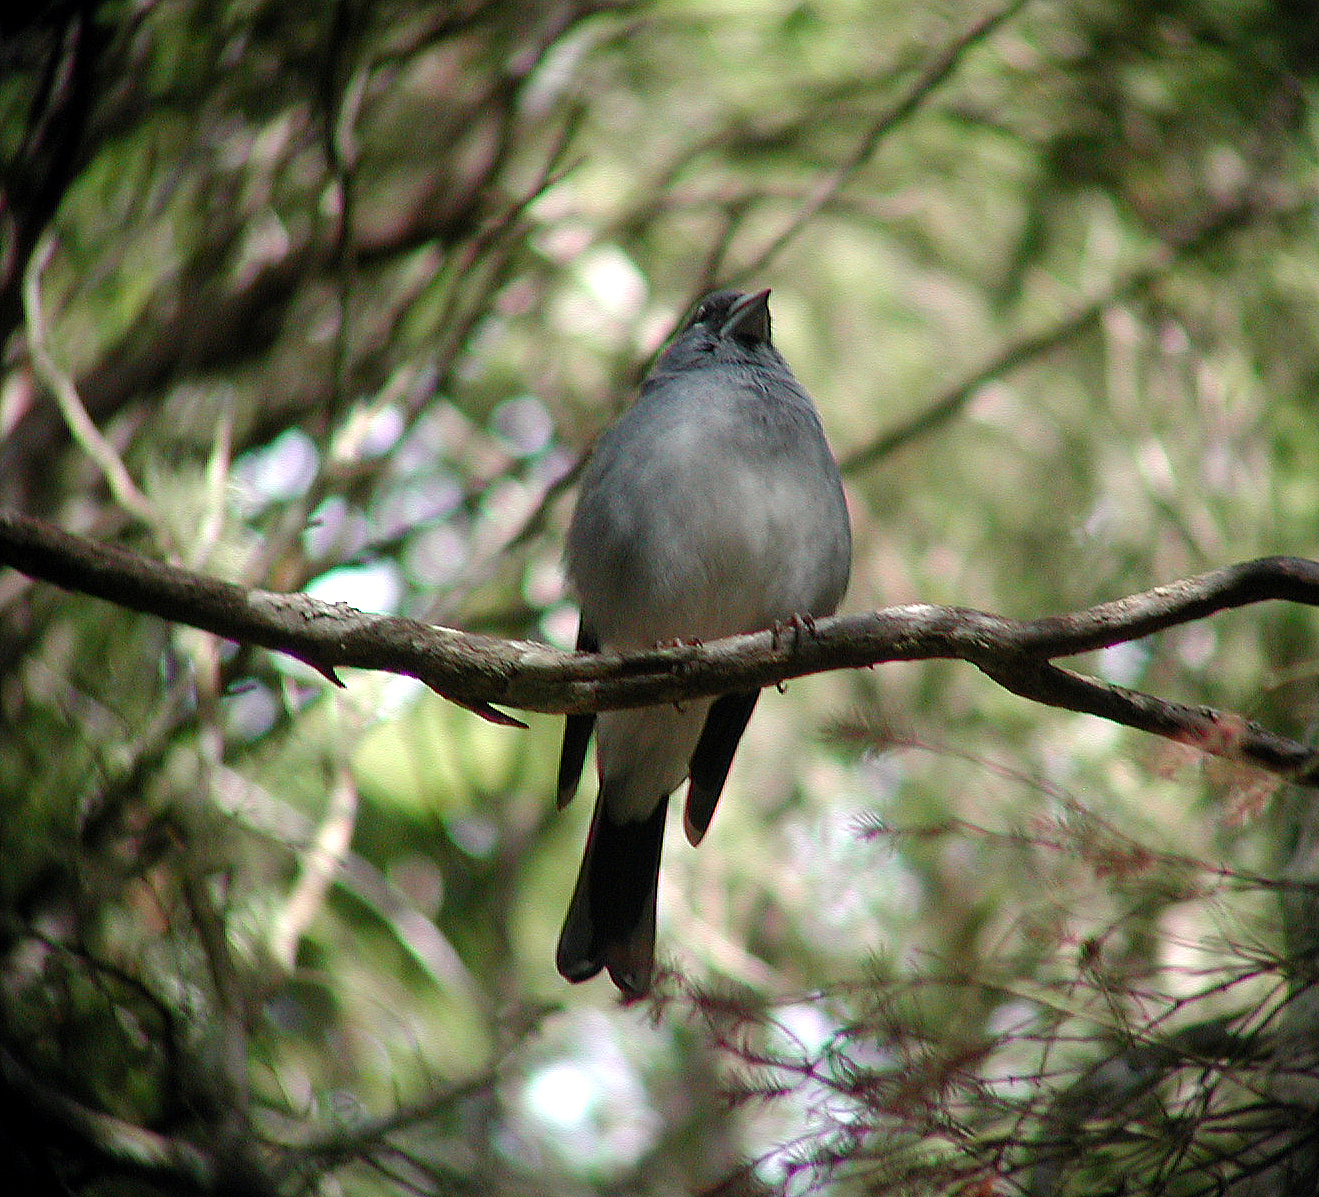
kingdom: Animalia
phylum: Chordata
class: Aves
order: Passeriformes
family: Fringillidae
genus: Fringilla
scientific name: Fringilla teydea
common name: Blue chaffinch
